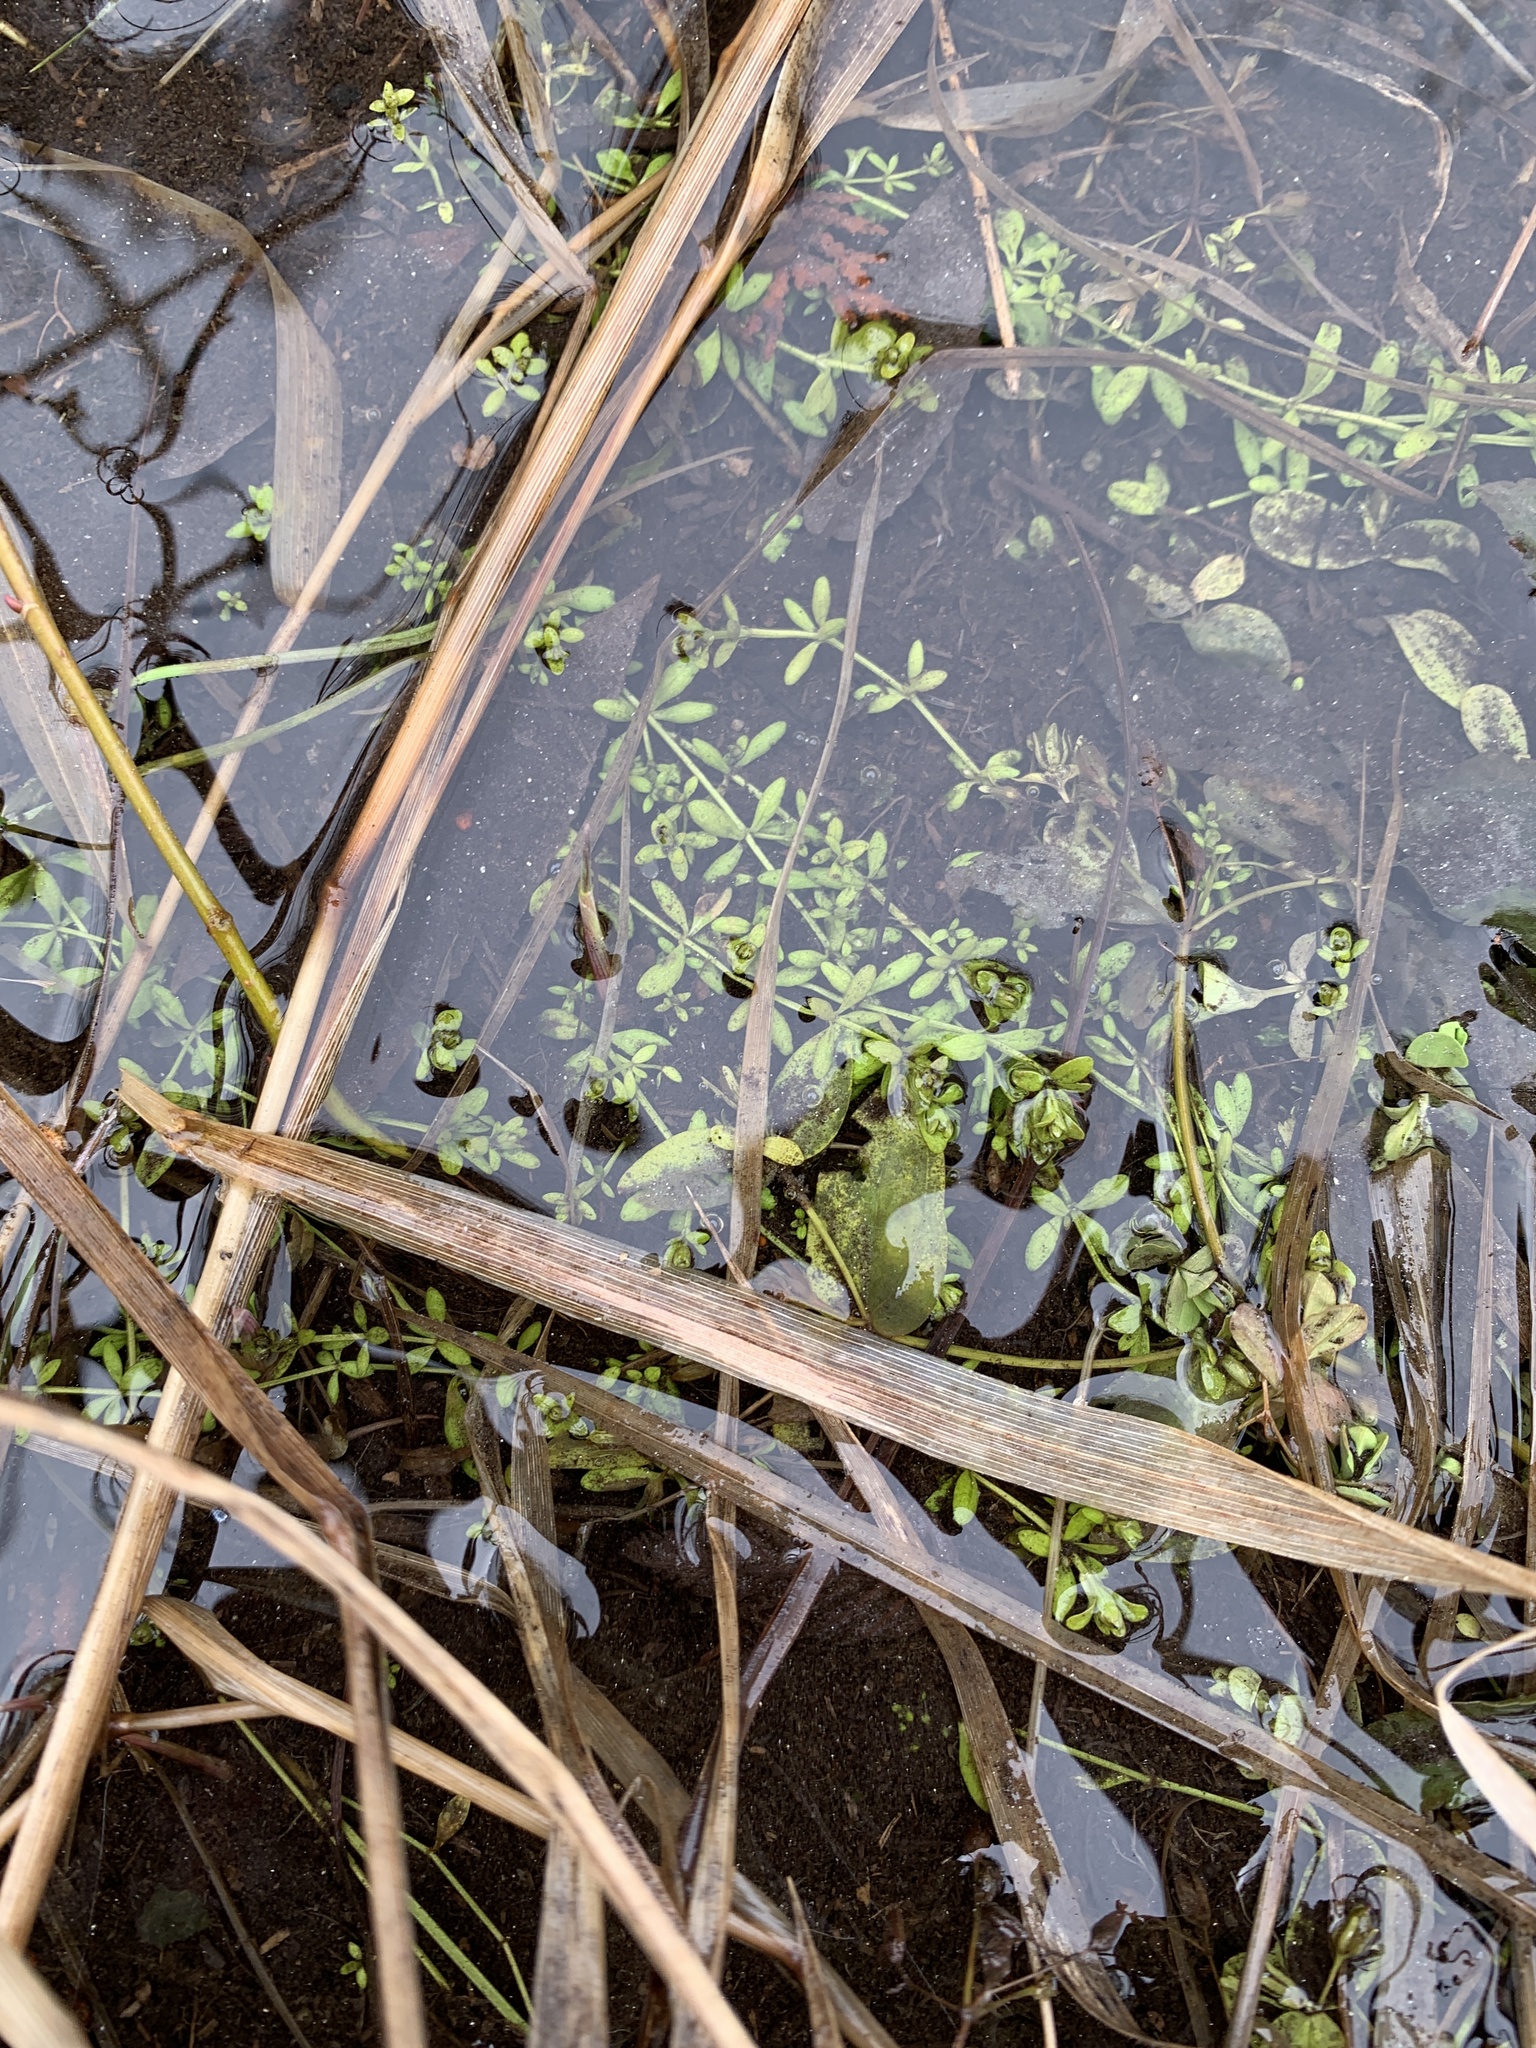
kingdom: Plantae
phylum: Tracheophyta
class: Magnoliopsida
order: Gentianales
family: Rubiaceae
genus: Galium
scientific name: Galium palustre
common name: Common marsh-bedstraw
